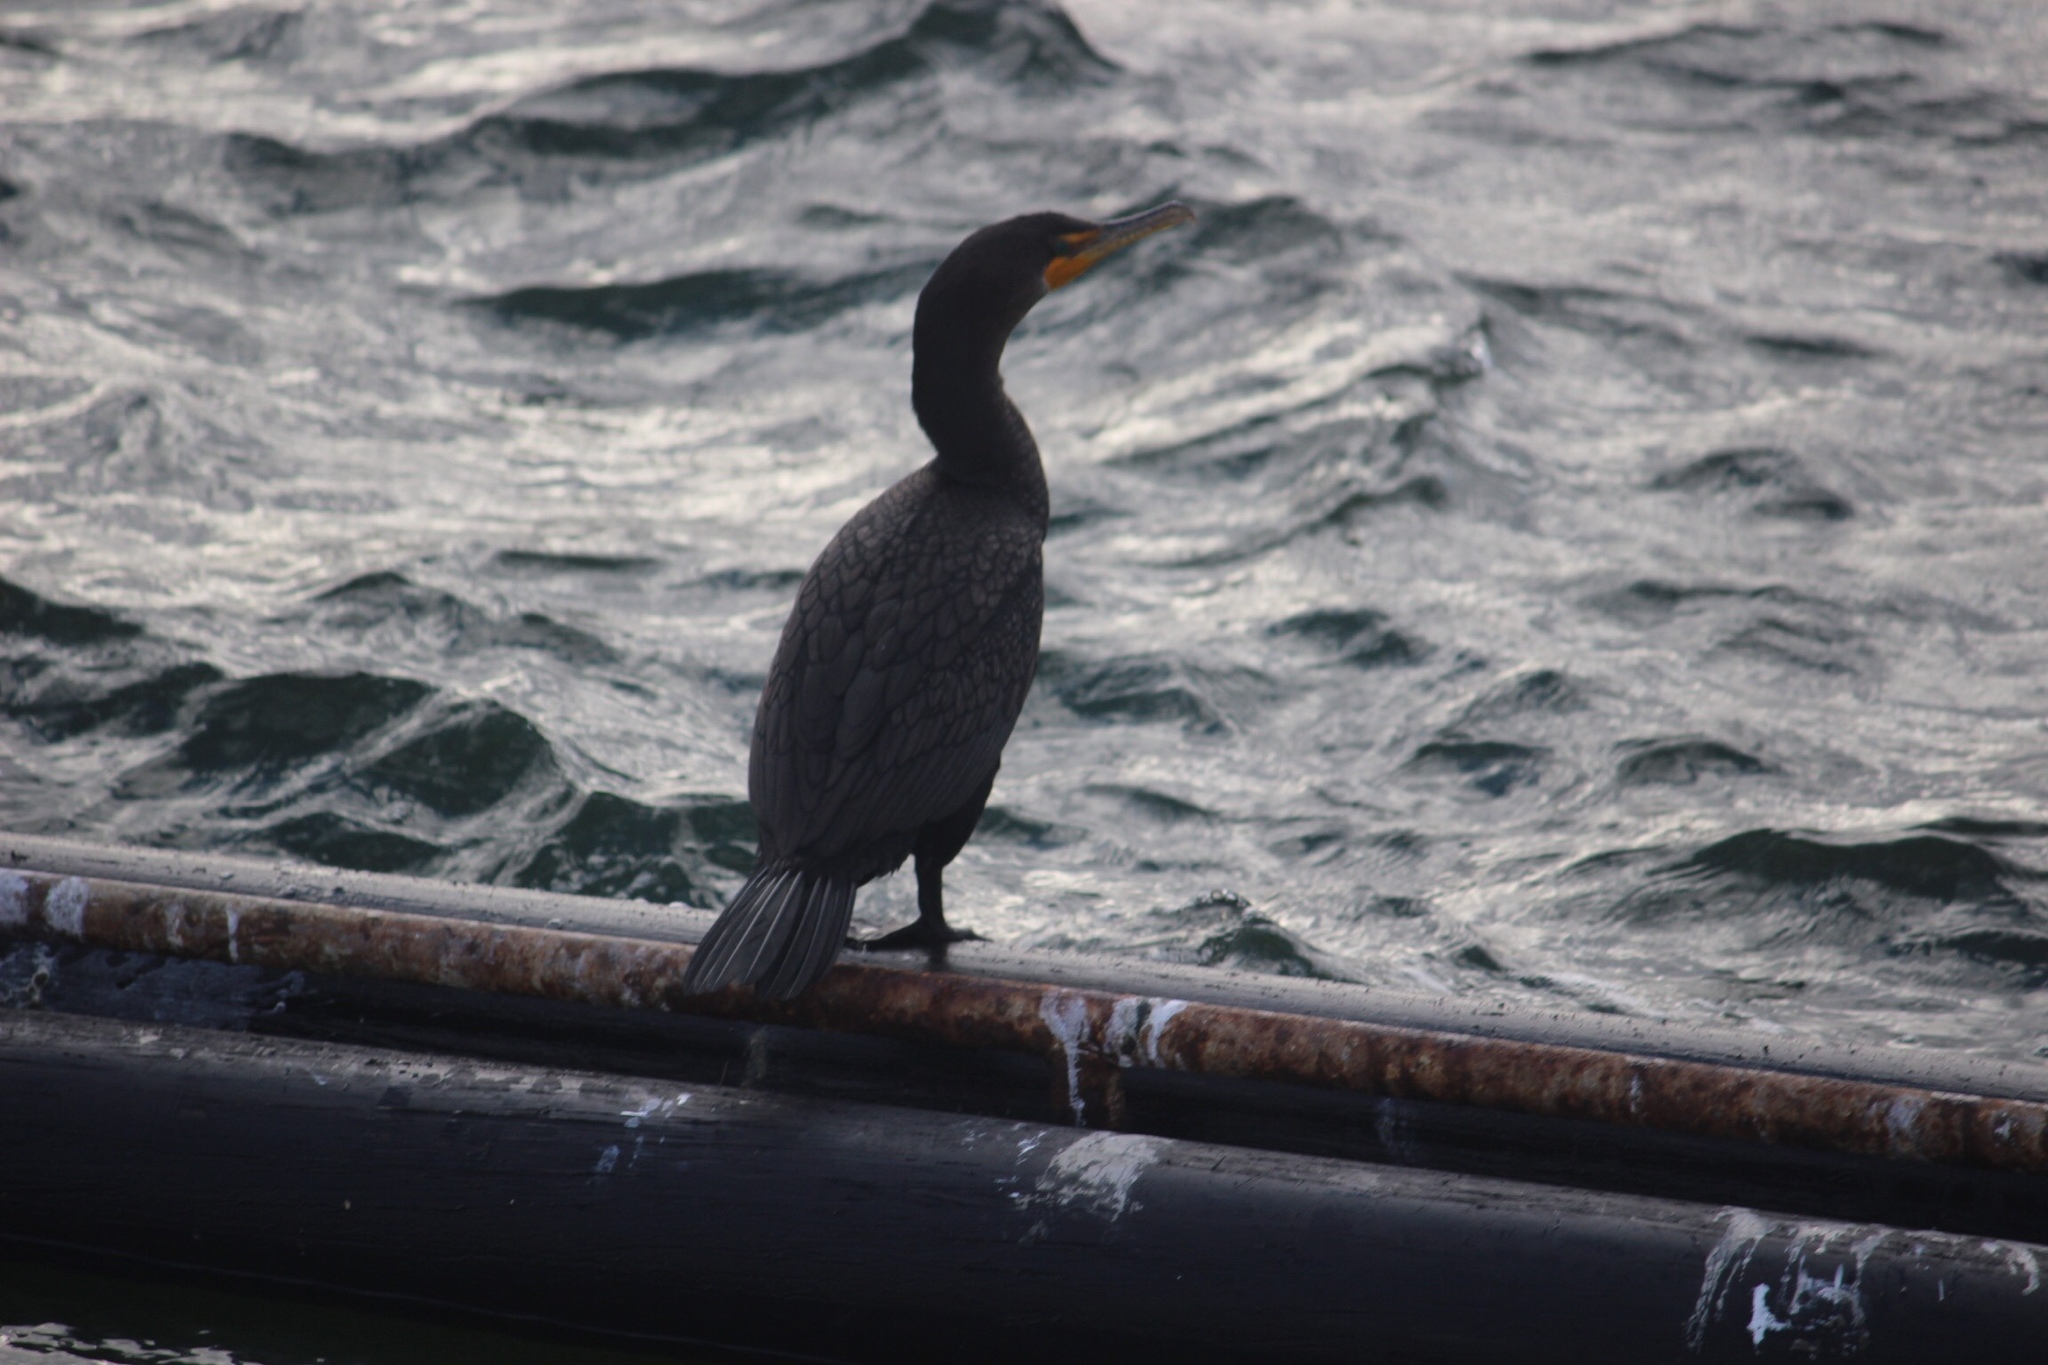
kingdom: Animalia
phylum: Chordata
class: Aves
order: Suliformes
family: Phalacrocoracidae
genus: Phalacrocorax
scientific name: Phalacrocorax auritus
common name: Double-crested cormorant
